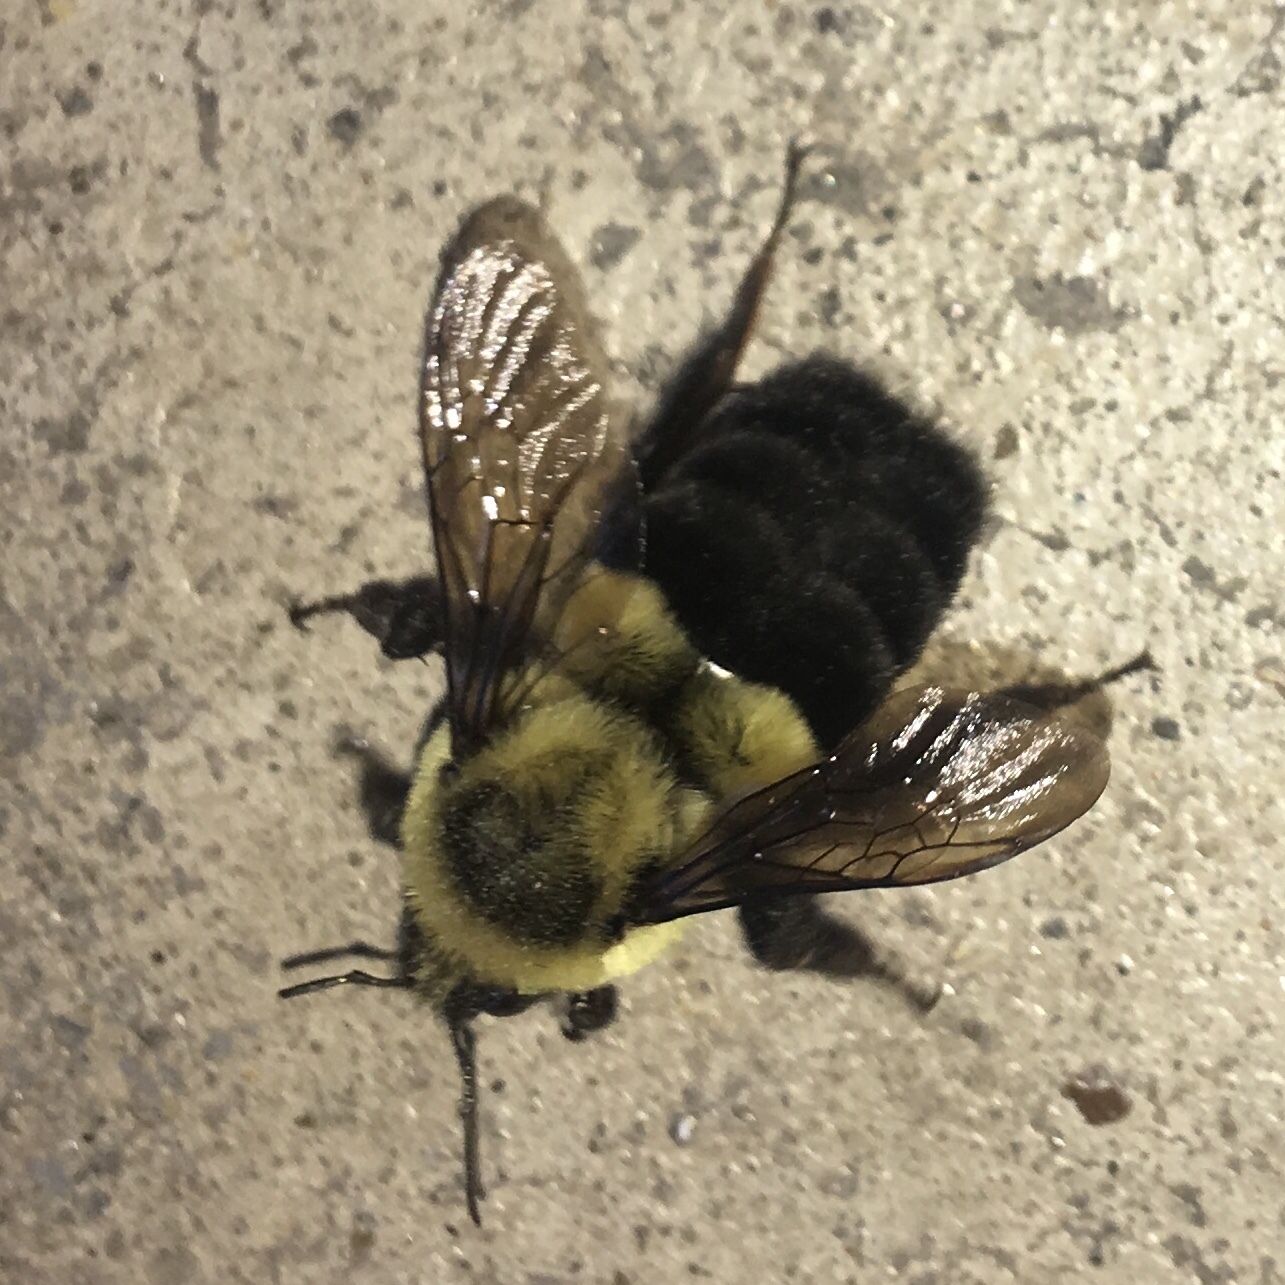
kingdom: Animalia
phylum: Arthropoda
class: Insecta
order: Hymenoptera
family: Apidae
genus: Bombus
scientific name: Bombus impatiens
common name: Common eastern bumble bee
